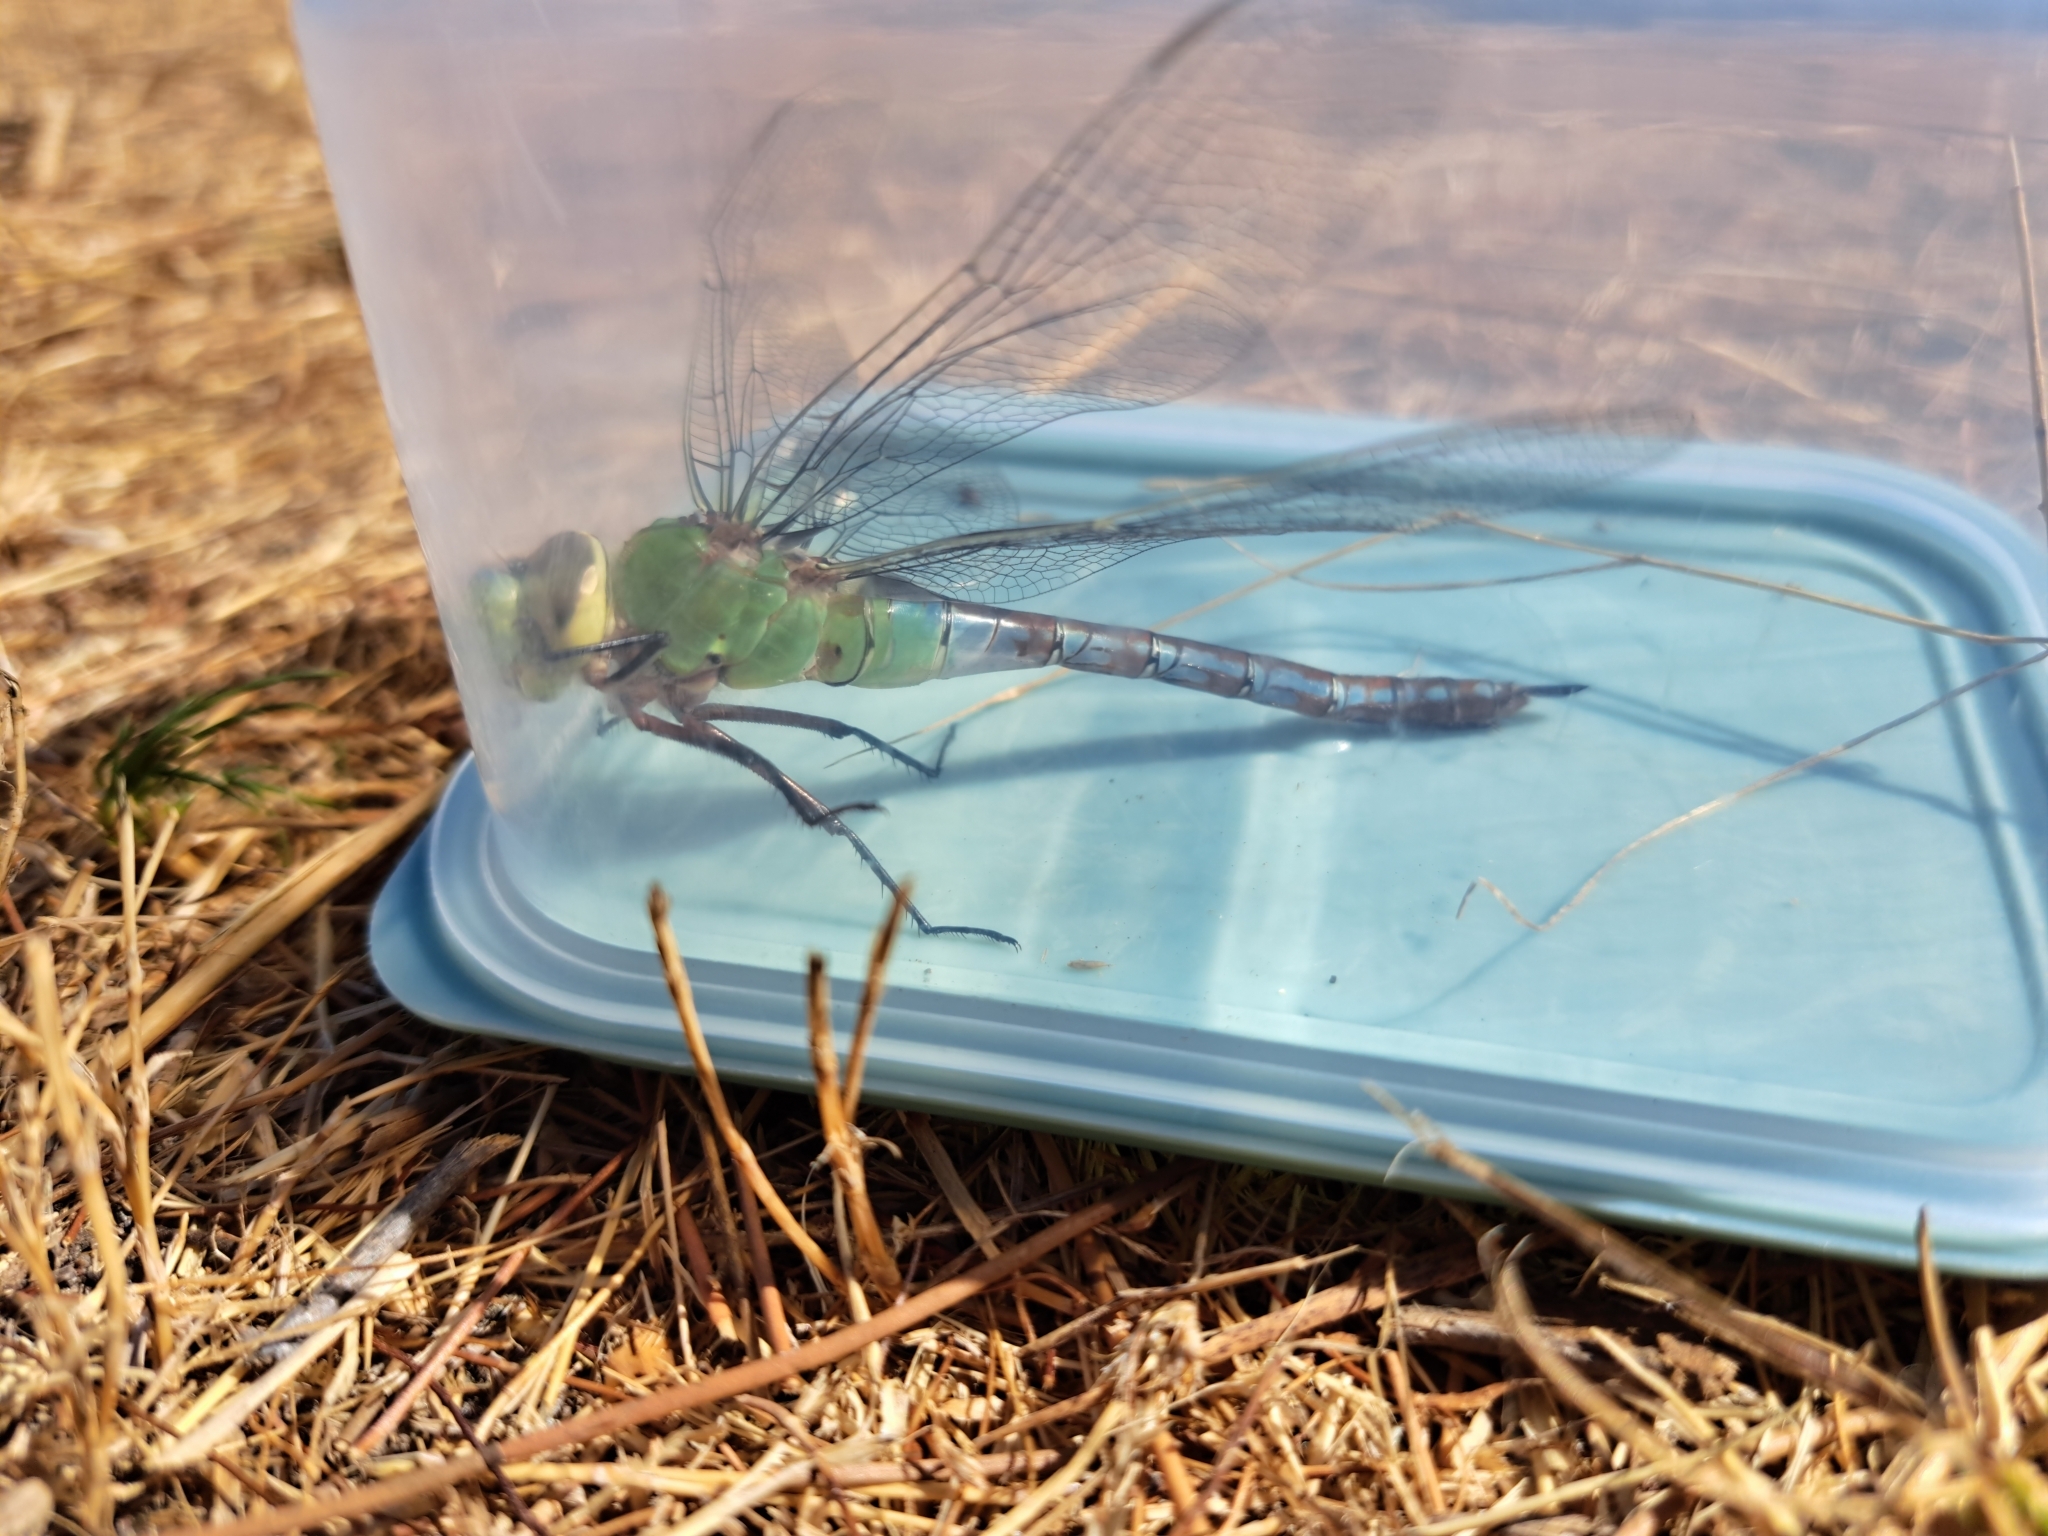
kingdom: Animalia
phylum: Arthropoda
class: Insecta
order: Odonata
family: Aeshnidae
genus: Anax
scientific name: Anax imperator
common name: Emperor dragonfly
